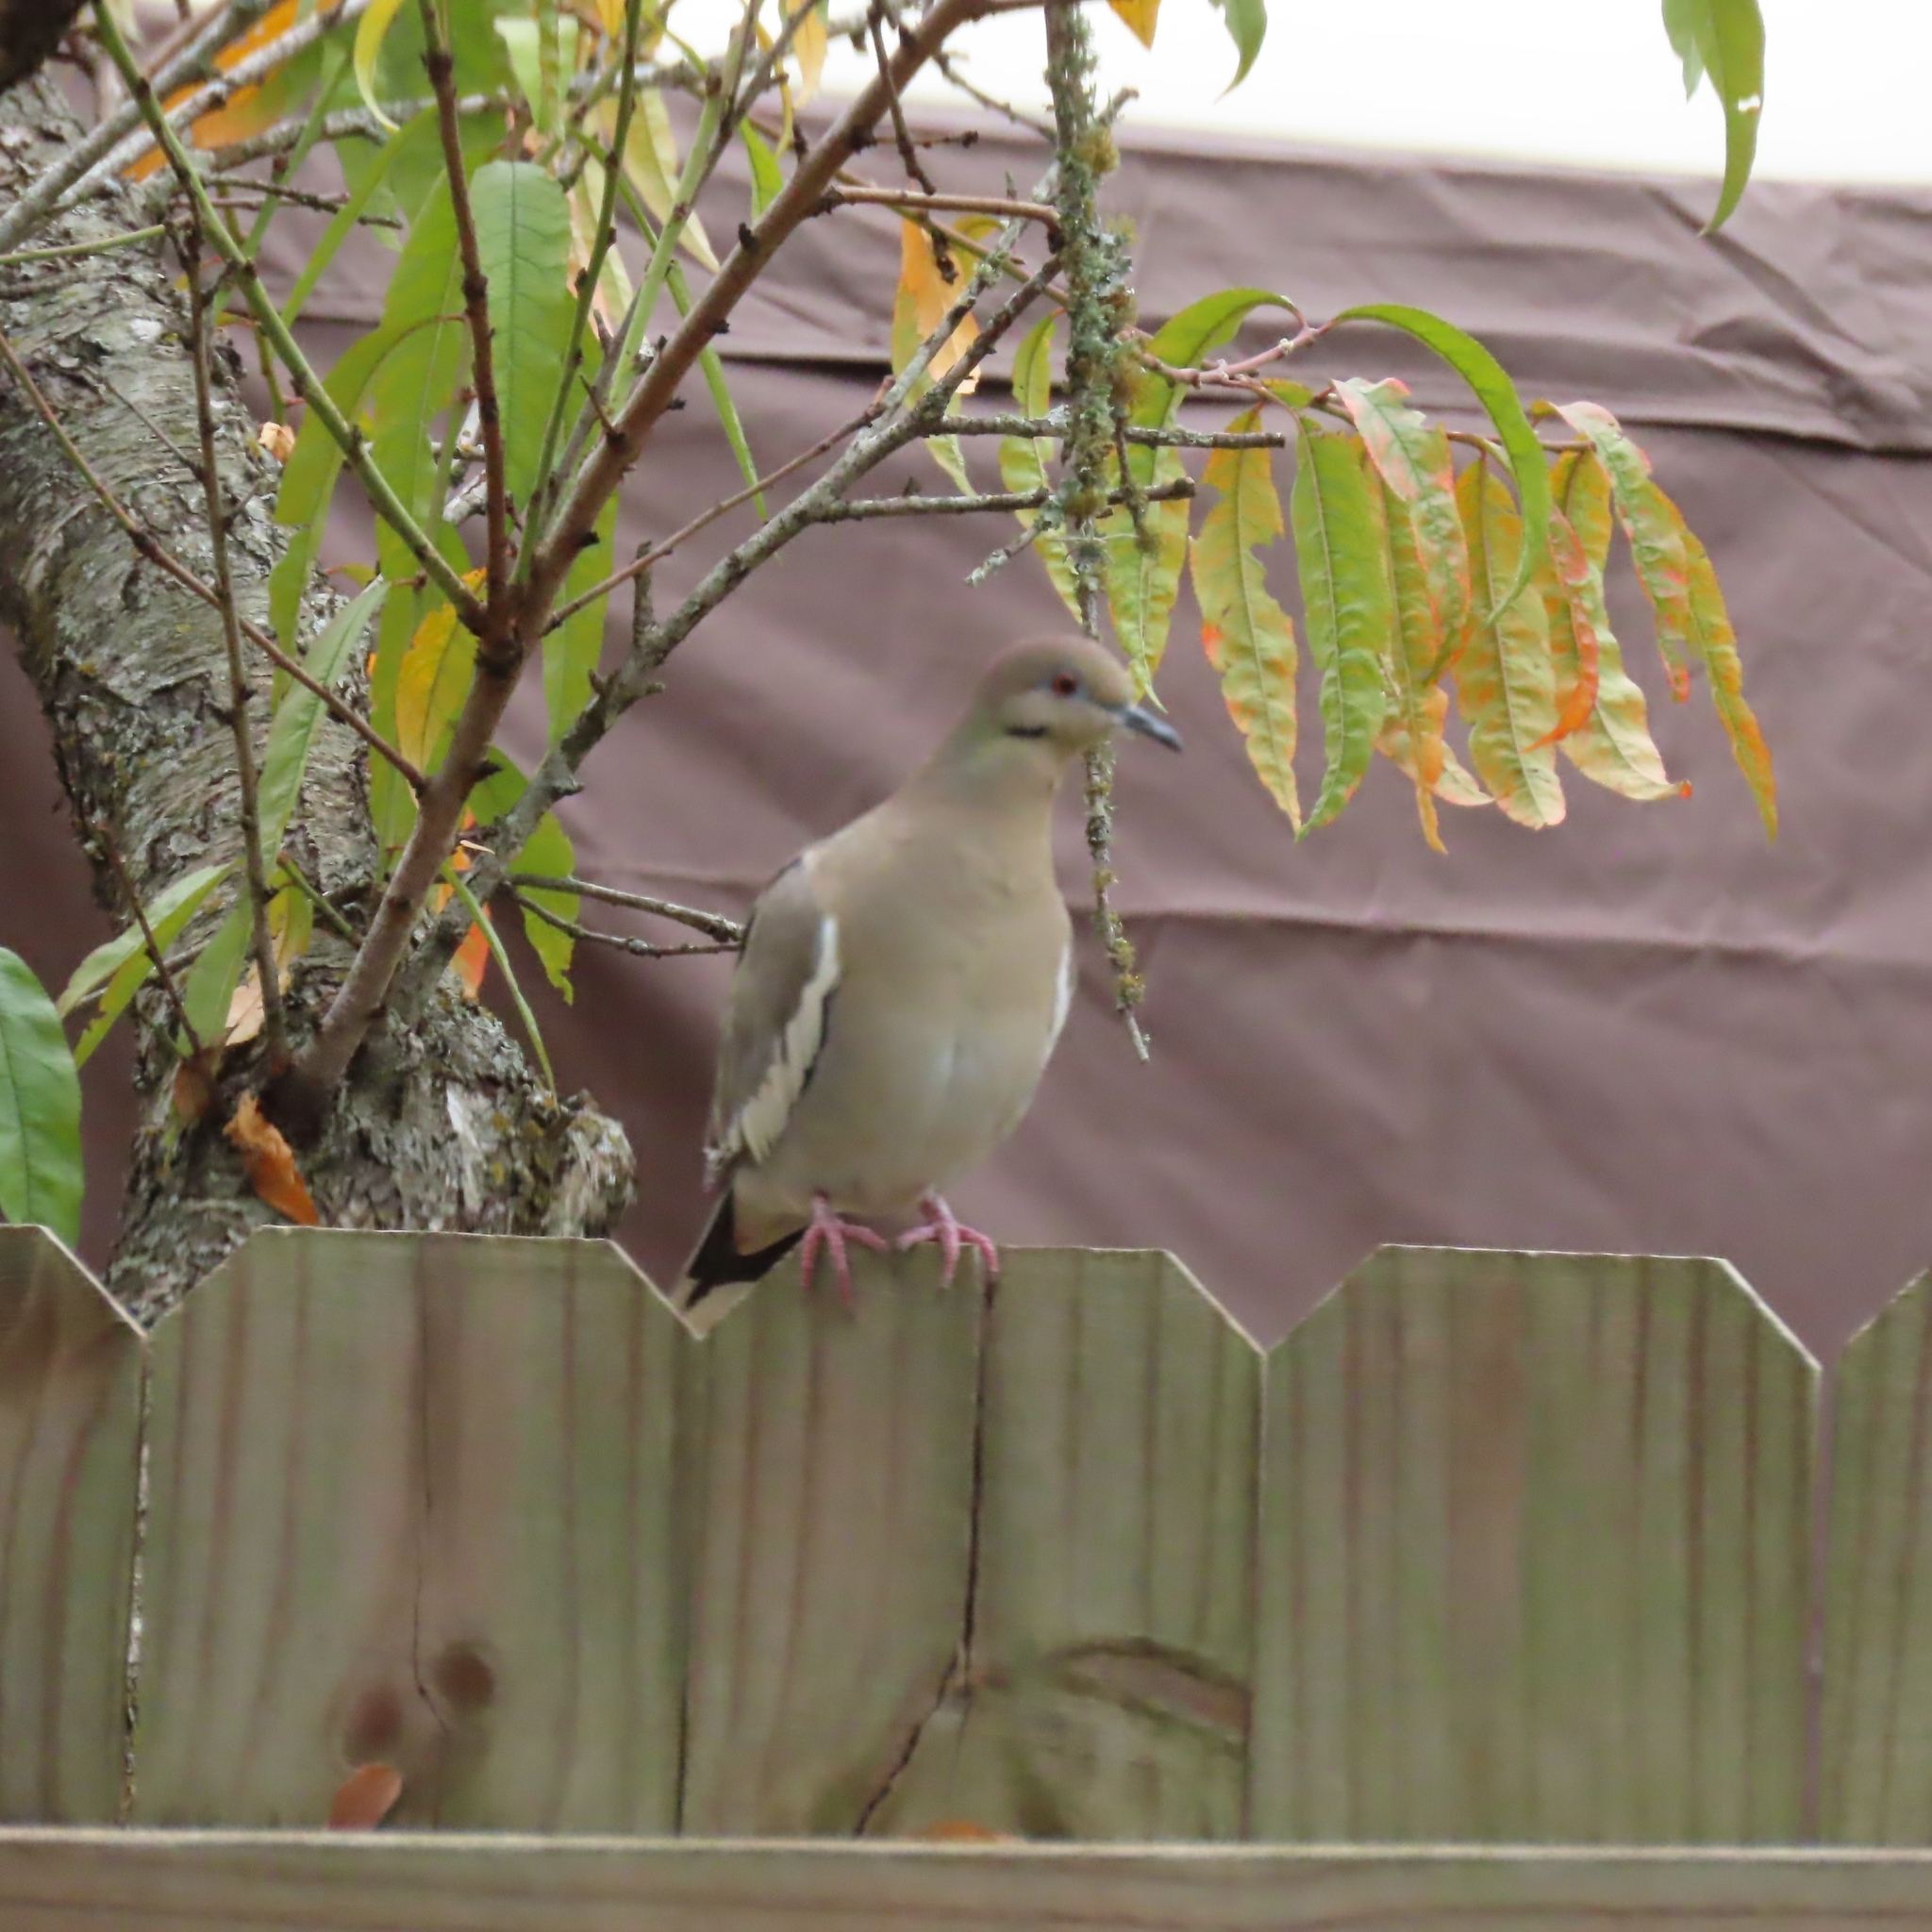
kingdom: Animalia
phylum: Chordata
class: Aves
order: Columbiformes
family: Columbidae
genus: Zenaida
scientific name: Zenaida asiatica
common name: White-winged dove
